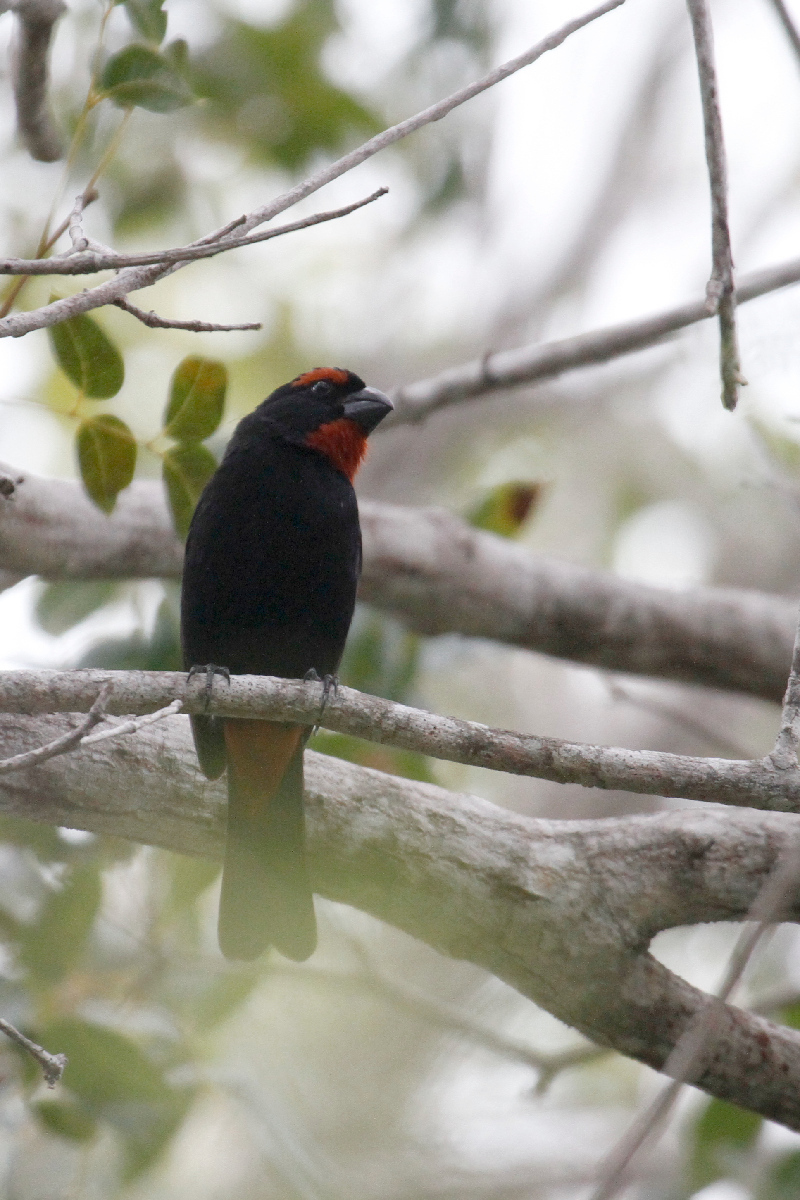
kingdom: Animalia
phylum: Chordata
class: Aves
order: Passeriformes
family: Thraupidae
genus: Melopyrrha
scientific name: Melopyrrha violacea
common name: Greater antillean bullfinch
